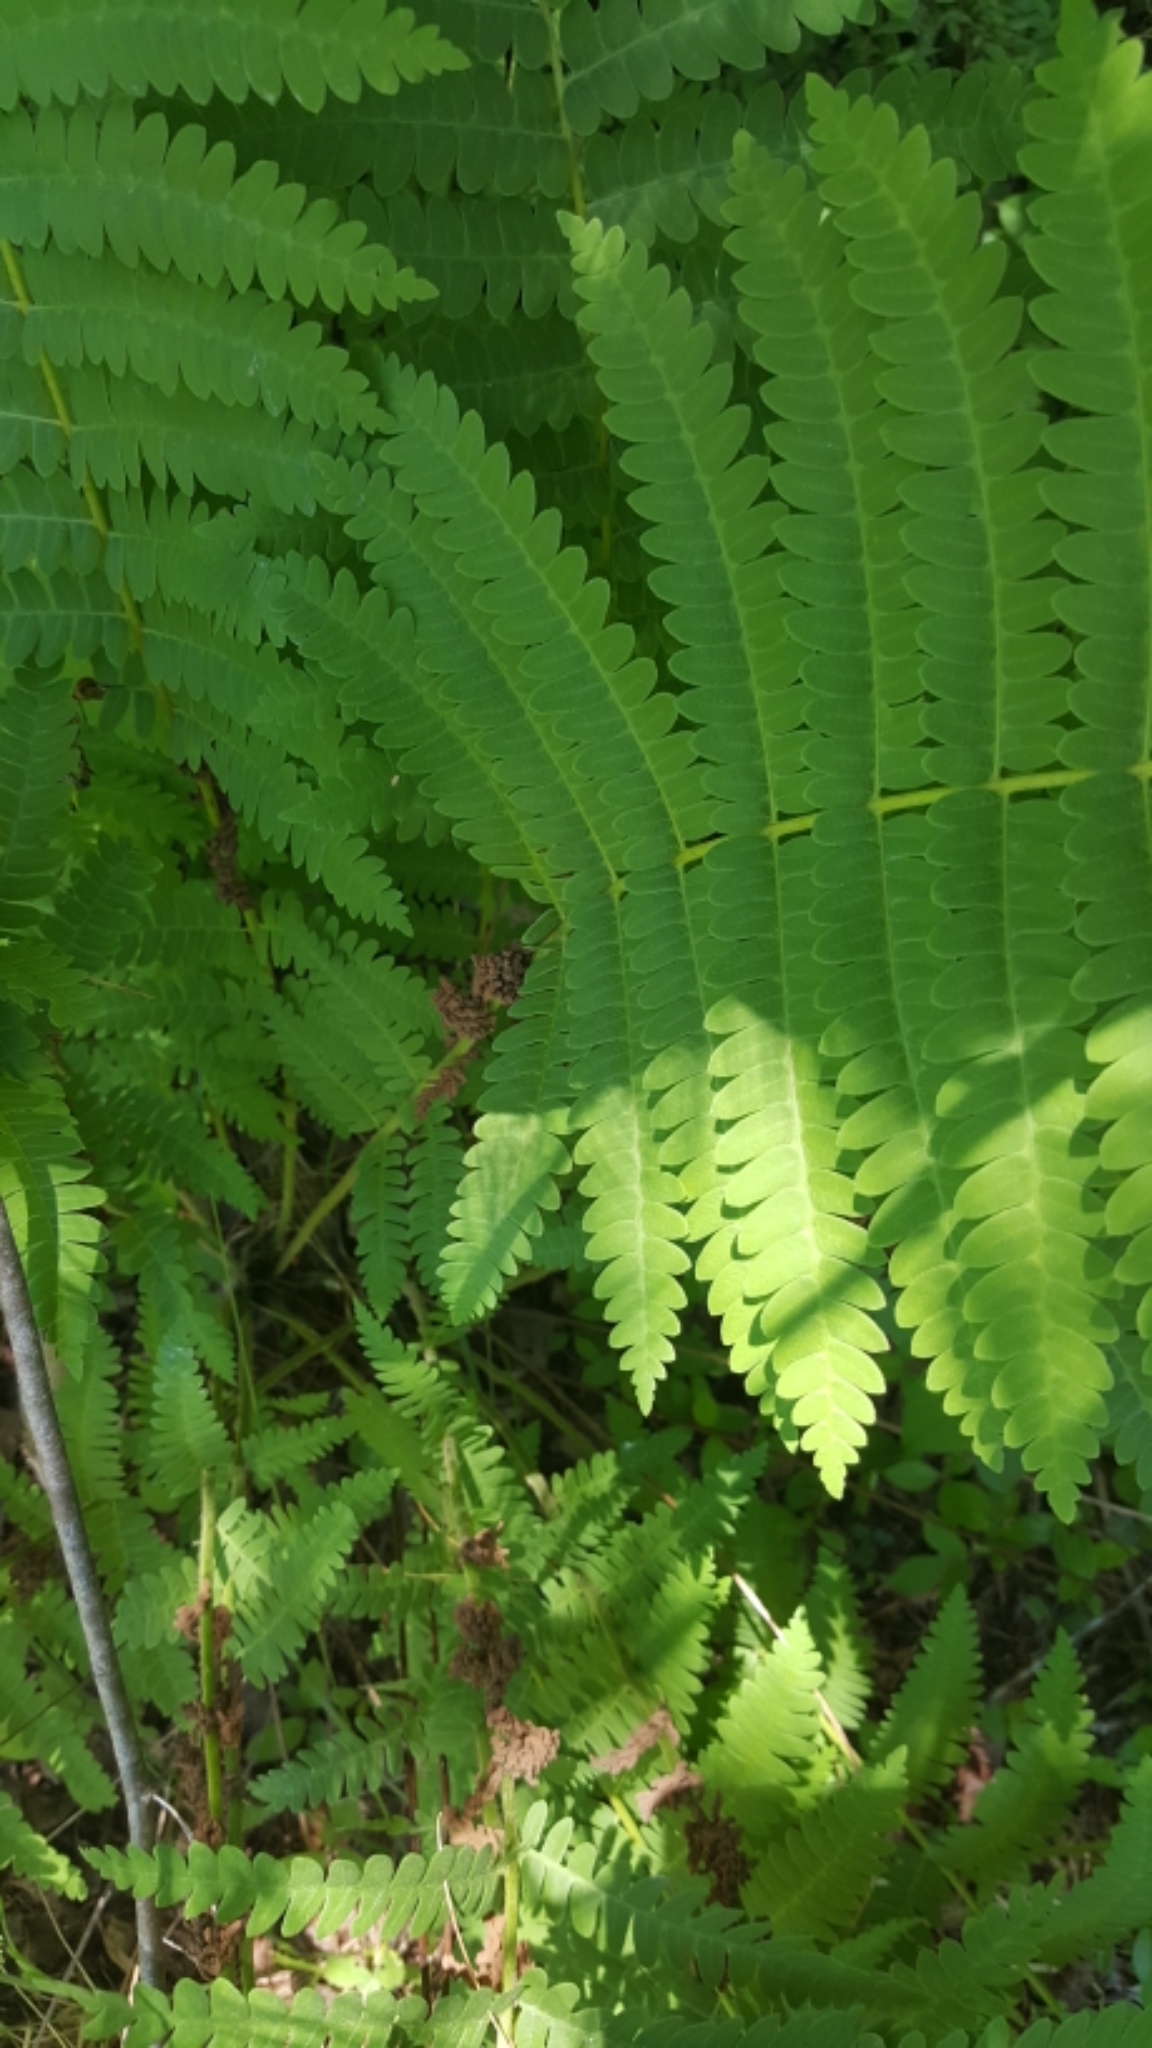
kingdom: Plantae
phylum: Tracheophyta
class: Polypodiopsida
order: Osmundales
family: Osmundaceae
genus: Claytosmunda
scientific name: Claytosmunda claytoniana
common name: Clayton's fern
